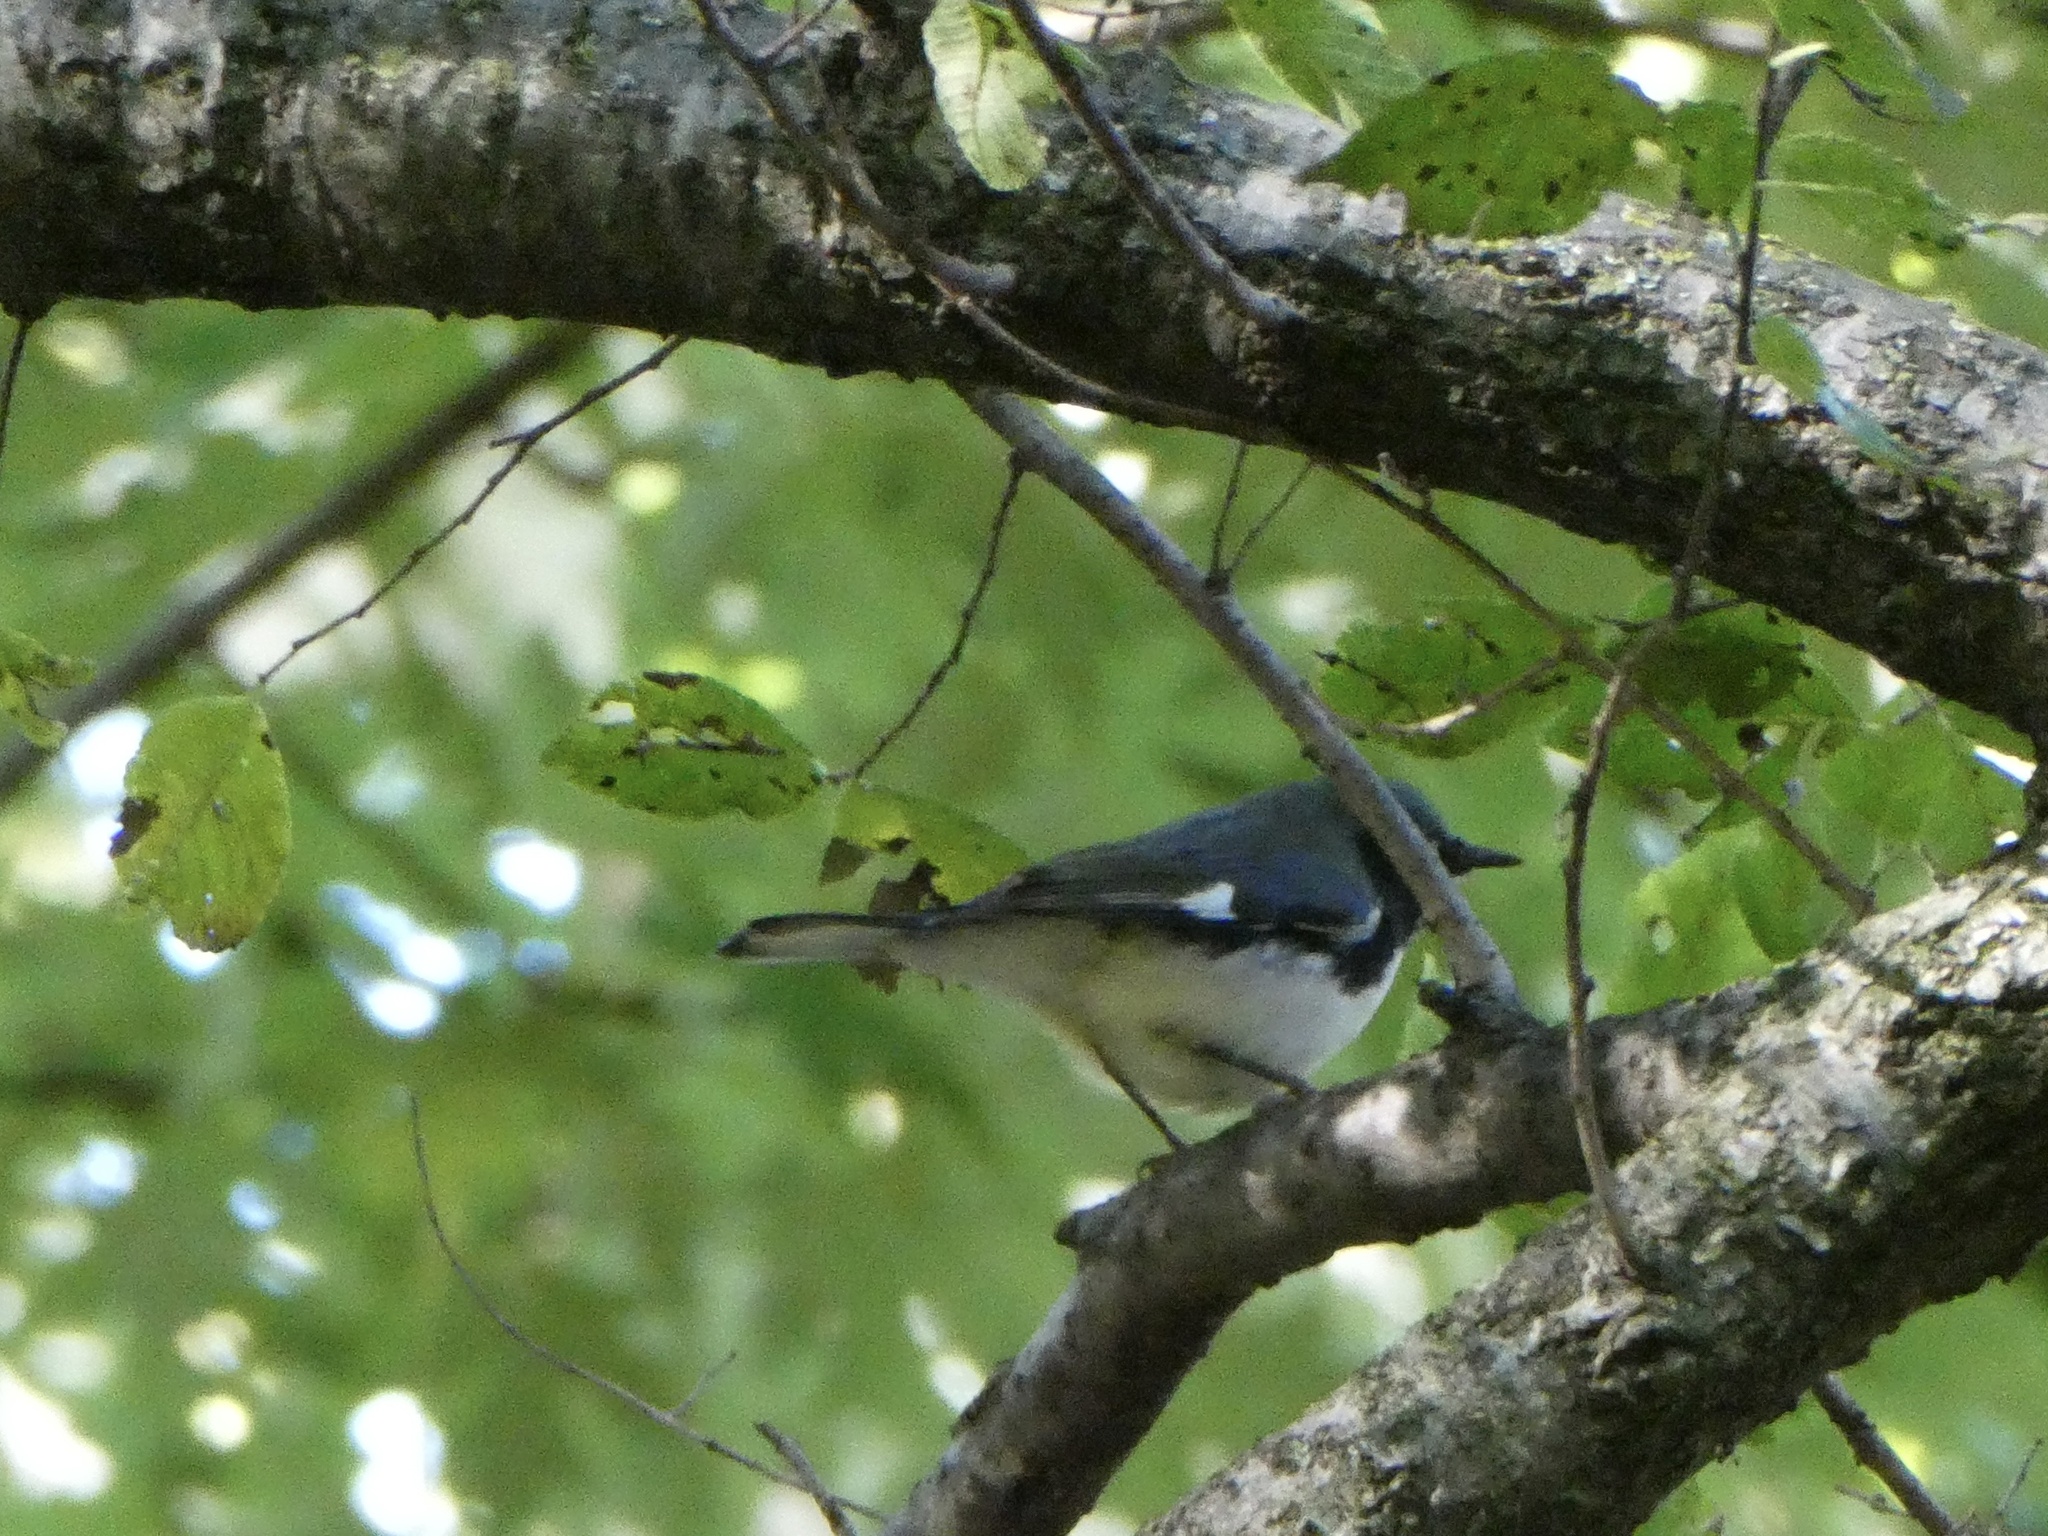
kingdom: Animalia
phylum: Chordata
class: Aves
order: Passeriformes
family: Parulidae
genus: Setophaga
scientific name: Setophaga caerulescens
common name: Black-throated blue warbler
